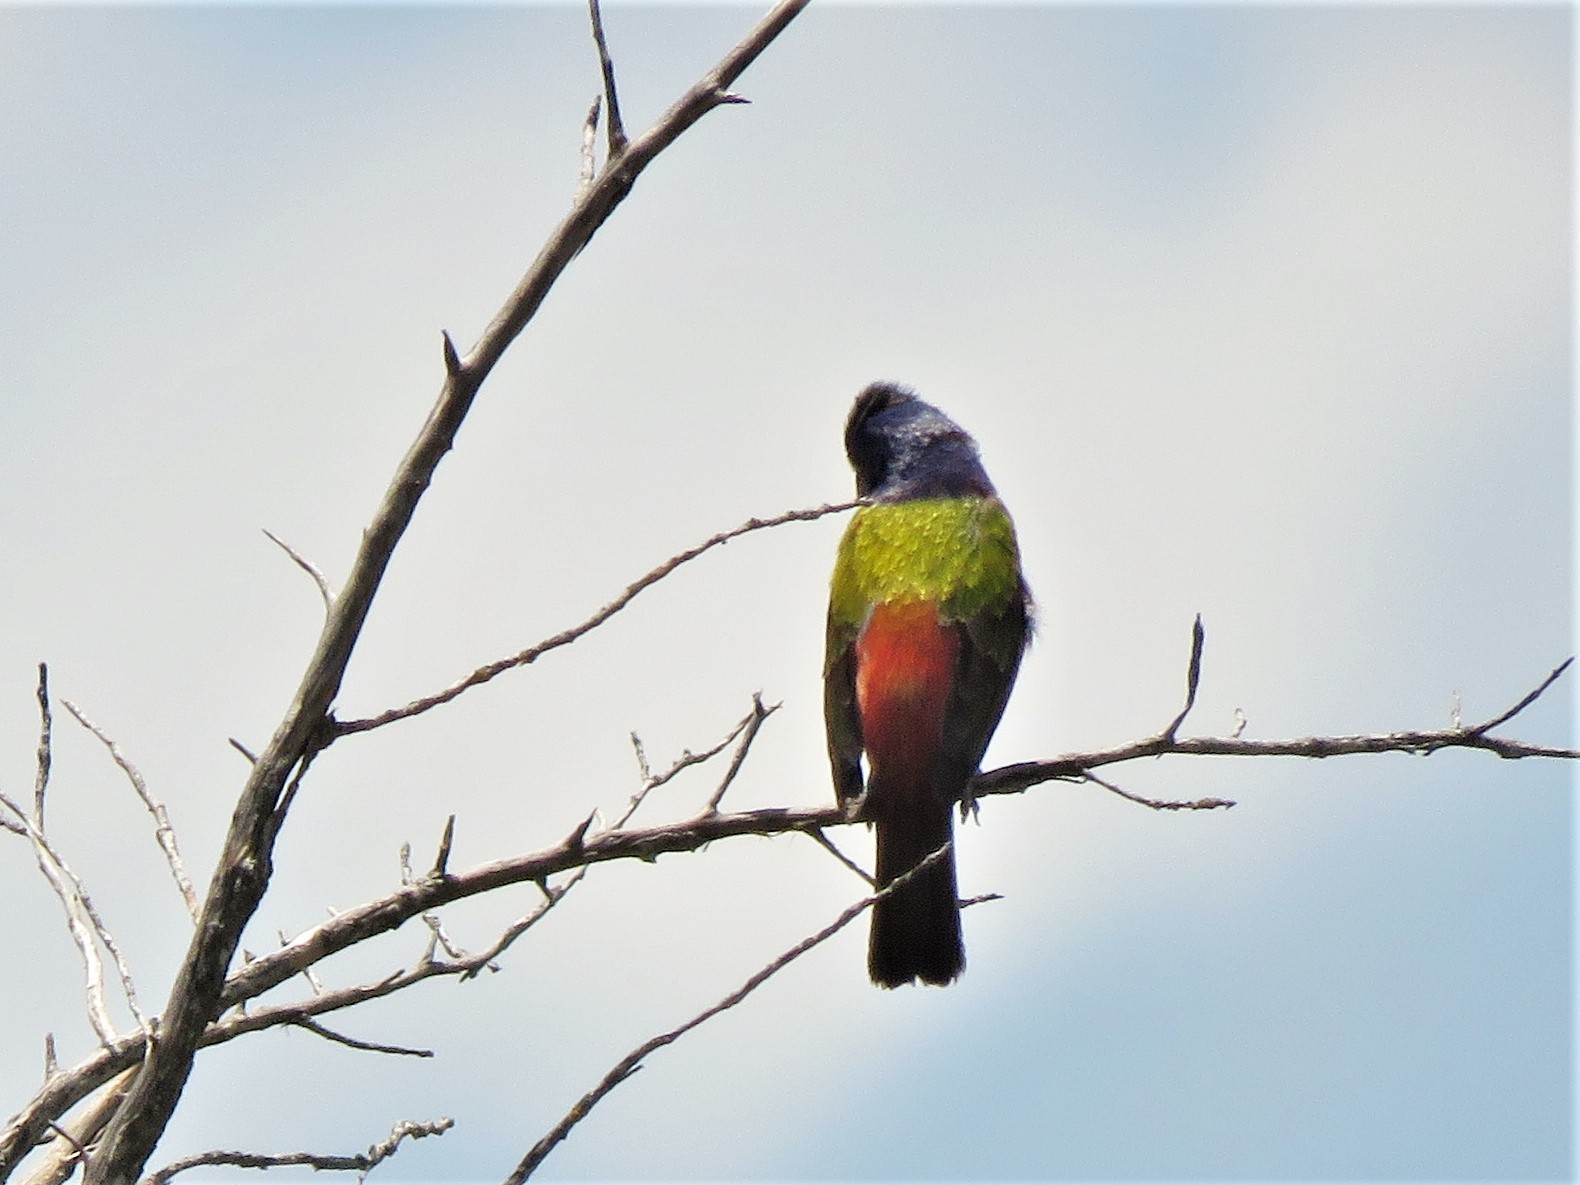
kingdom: Animalia
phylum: Chordata
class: Aves
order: Passeriformes
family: Cardinalidae
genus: Passerina
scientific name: Passerina ciris
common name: Painted bunting
